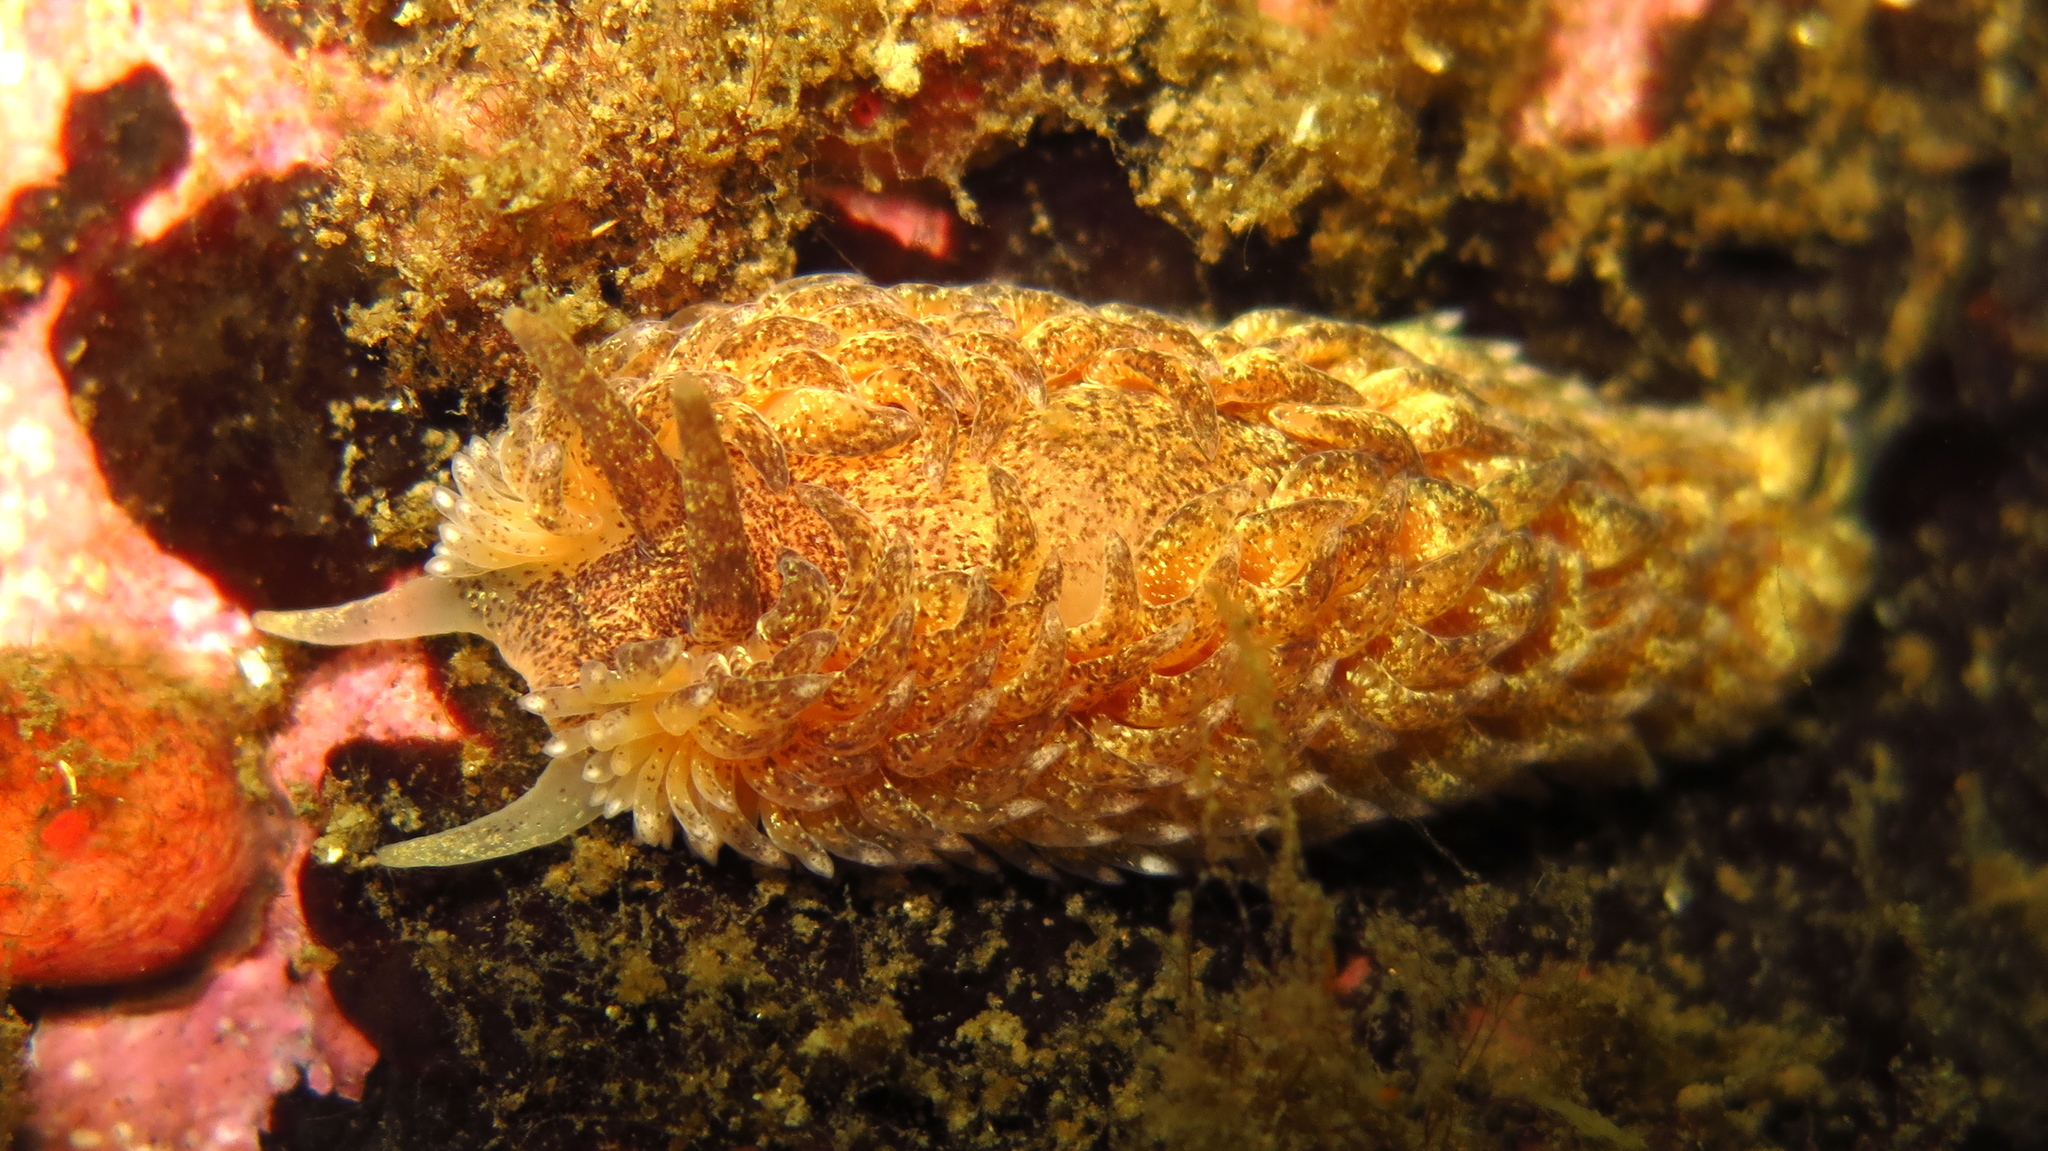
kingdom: Animalia
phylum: Mollusca
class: Gastropoda
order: Nudibranchia
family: Aeolidiidae
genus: Aeolidia
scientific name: Aeolidia papillosa
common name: Common grey sea slug
